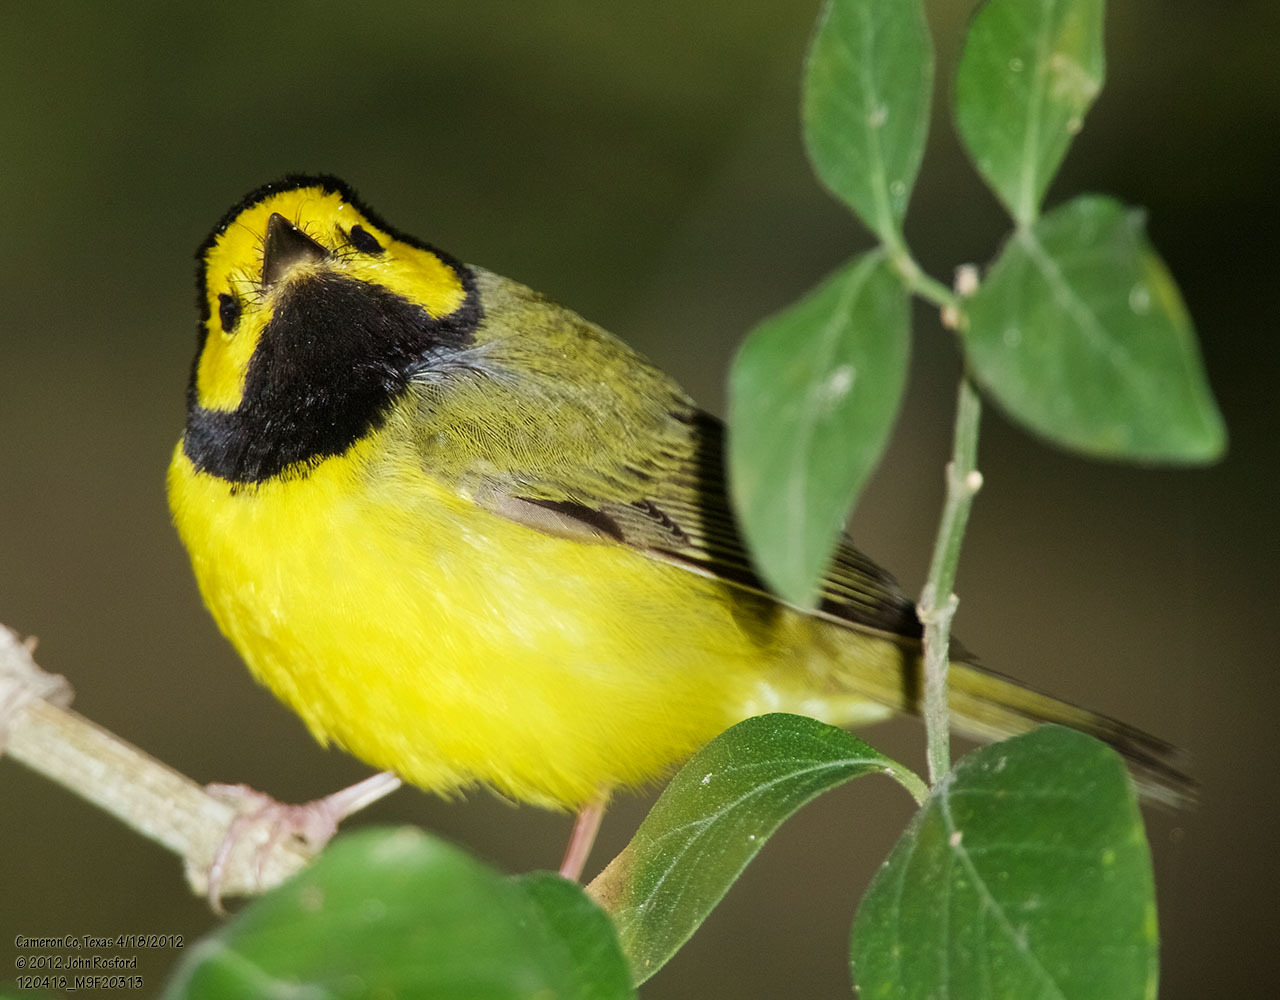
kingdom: Animalia
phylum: Chordata
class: Aves
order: Passeriformes
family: Parulidae
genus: Setophaga
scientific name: Setophaga citrina
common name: Hooded warbler
